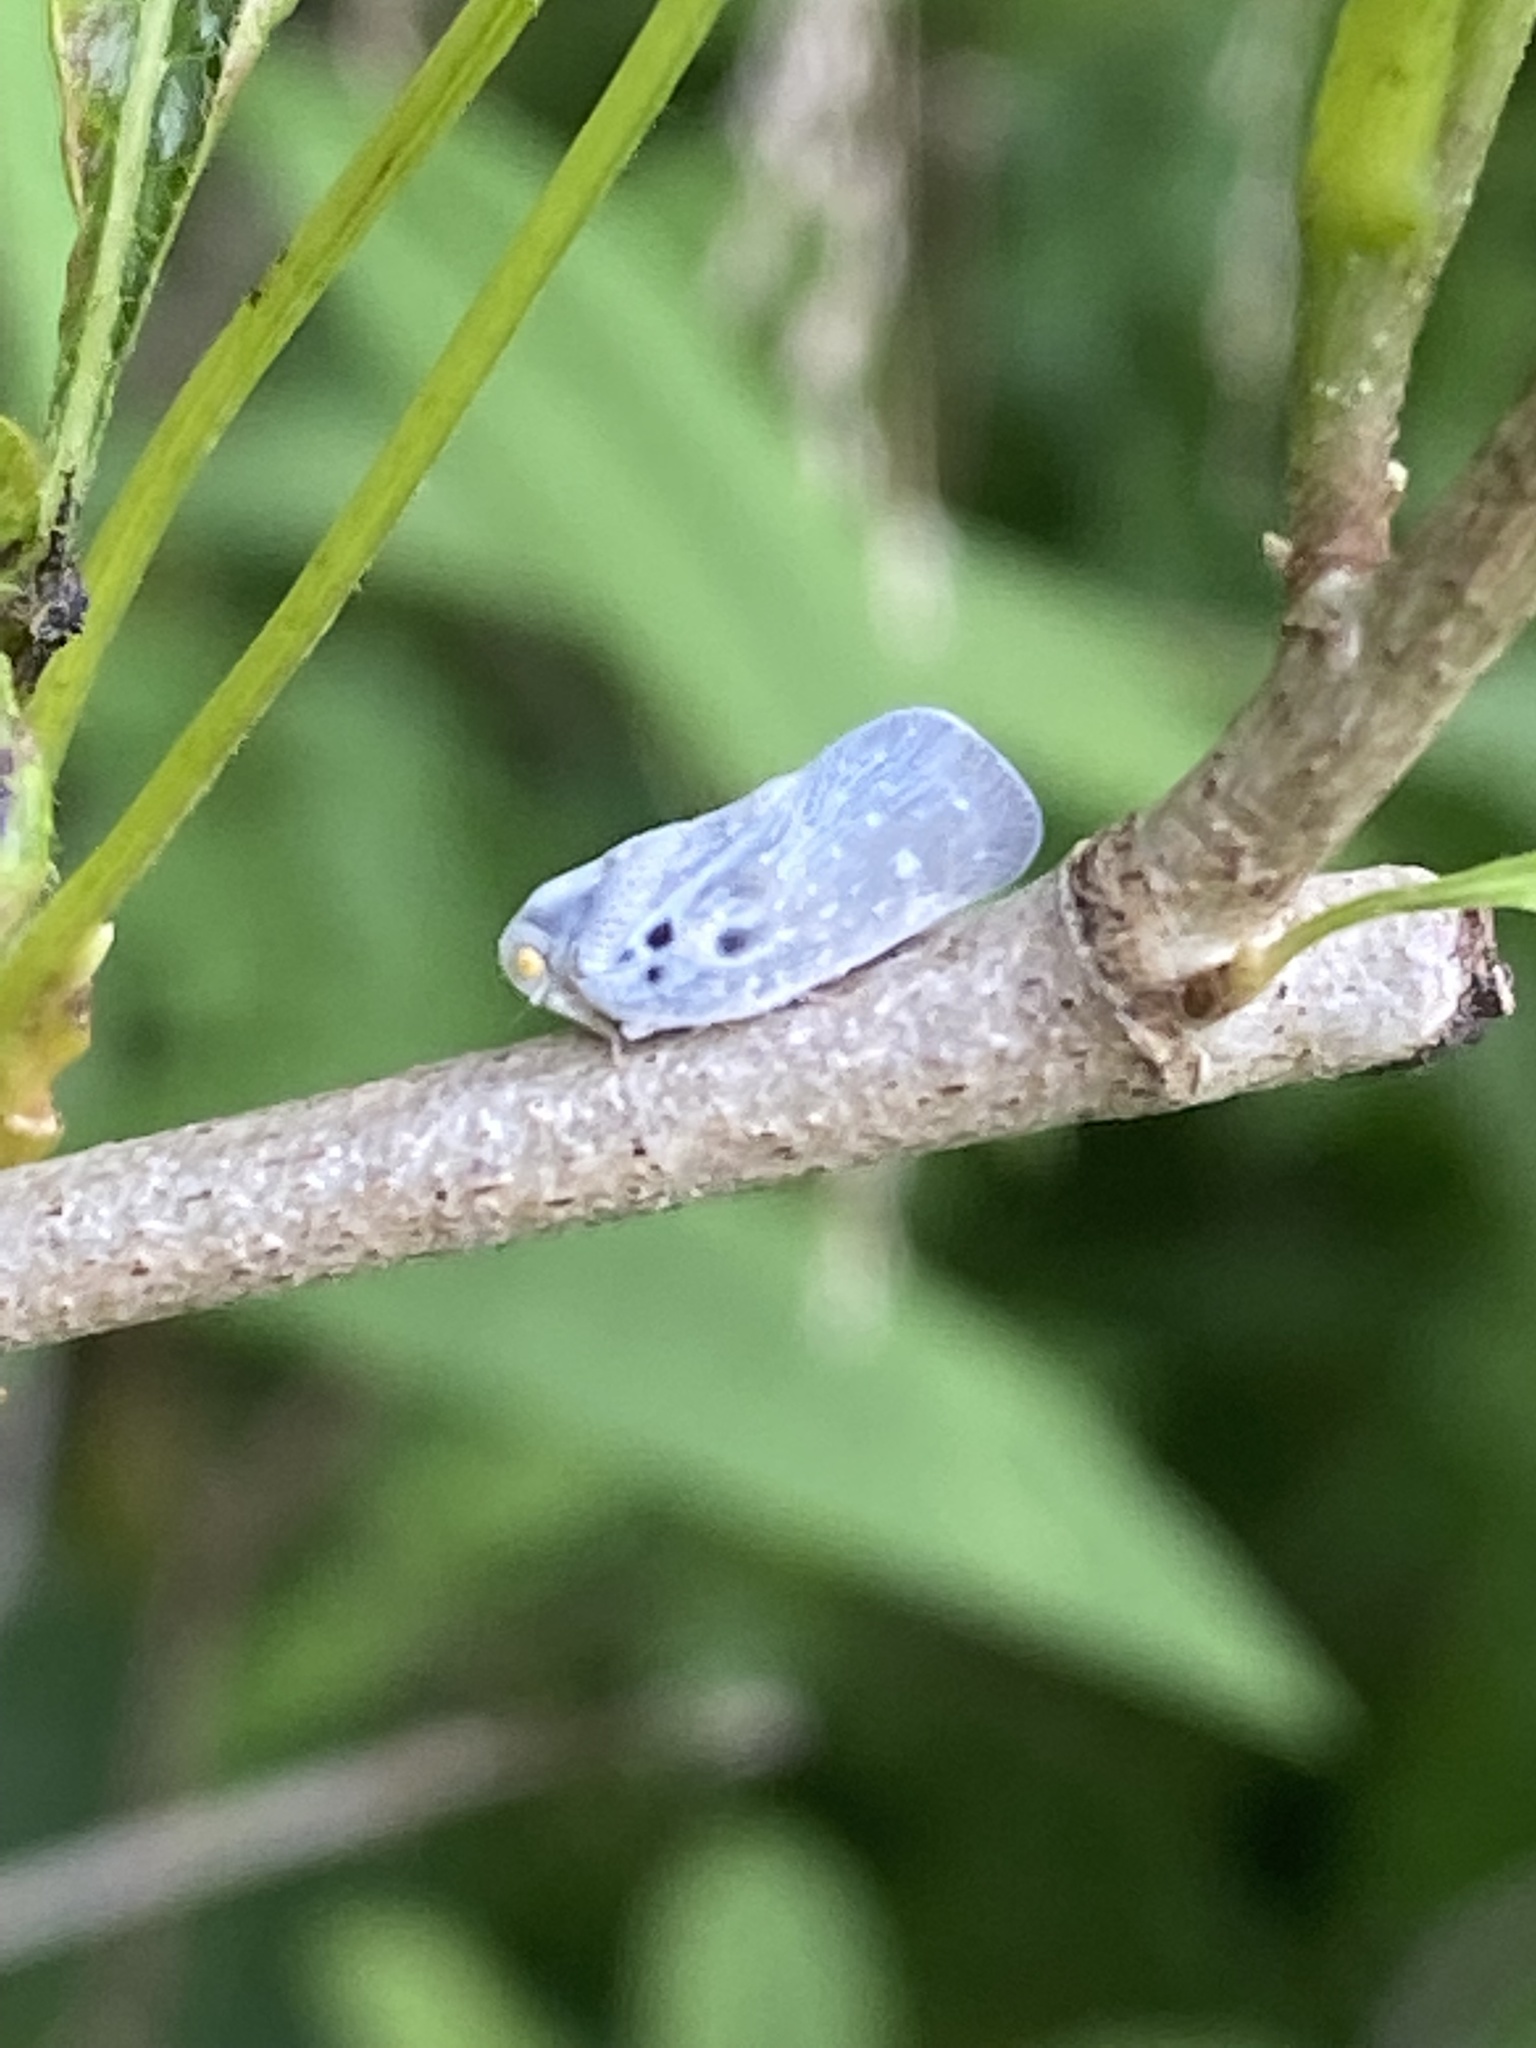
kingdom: Animalia
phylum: Arthropoda
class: Insecta
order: Hemiptera
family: Flatidae
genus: Metcalfa
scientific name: Metcalfa pruinosa
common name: Citrus flatid planthopper
